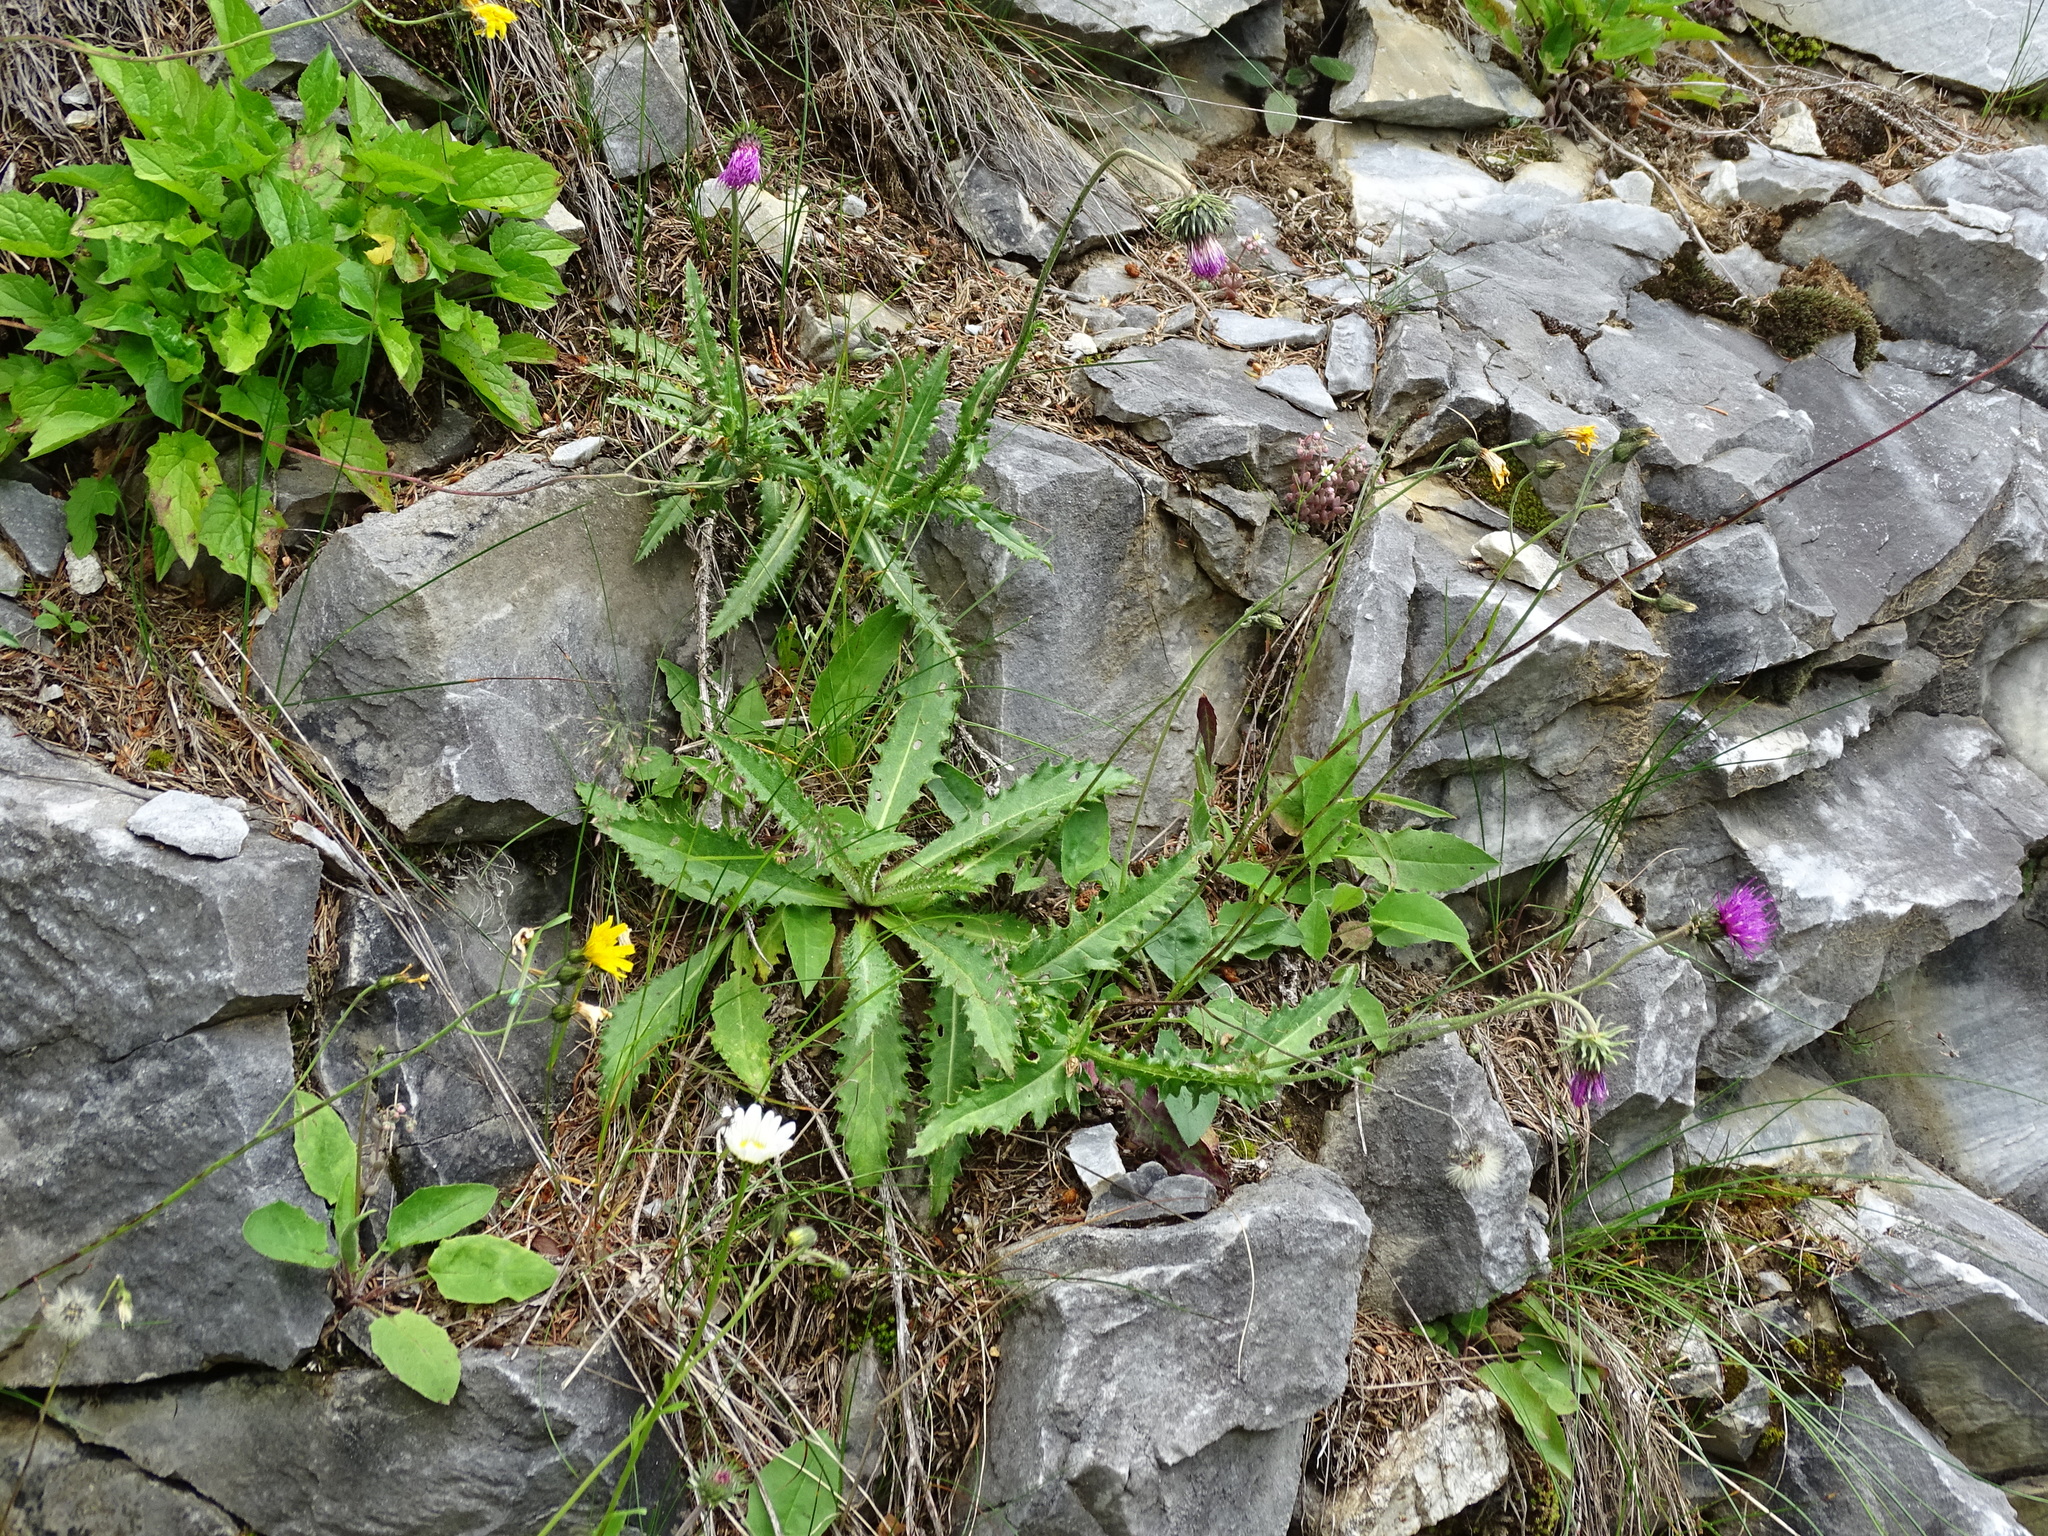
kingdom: Plantae
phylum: Tracheophyta
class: Magnoliopsida
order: Asterales
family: Asteraceae
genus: Carduus
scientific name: Carduus defloratus
